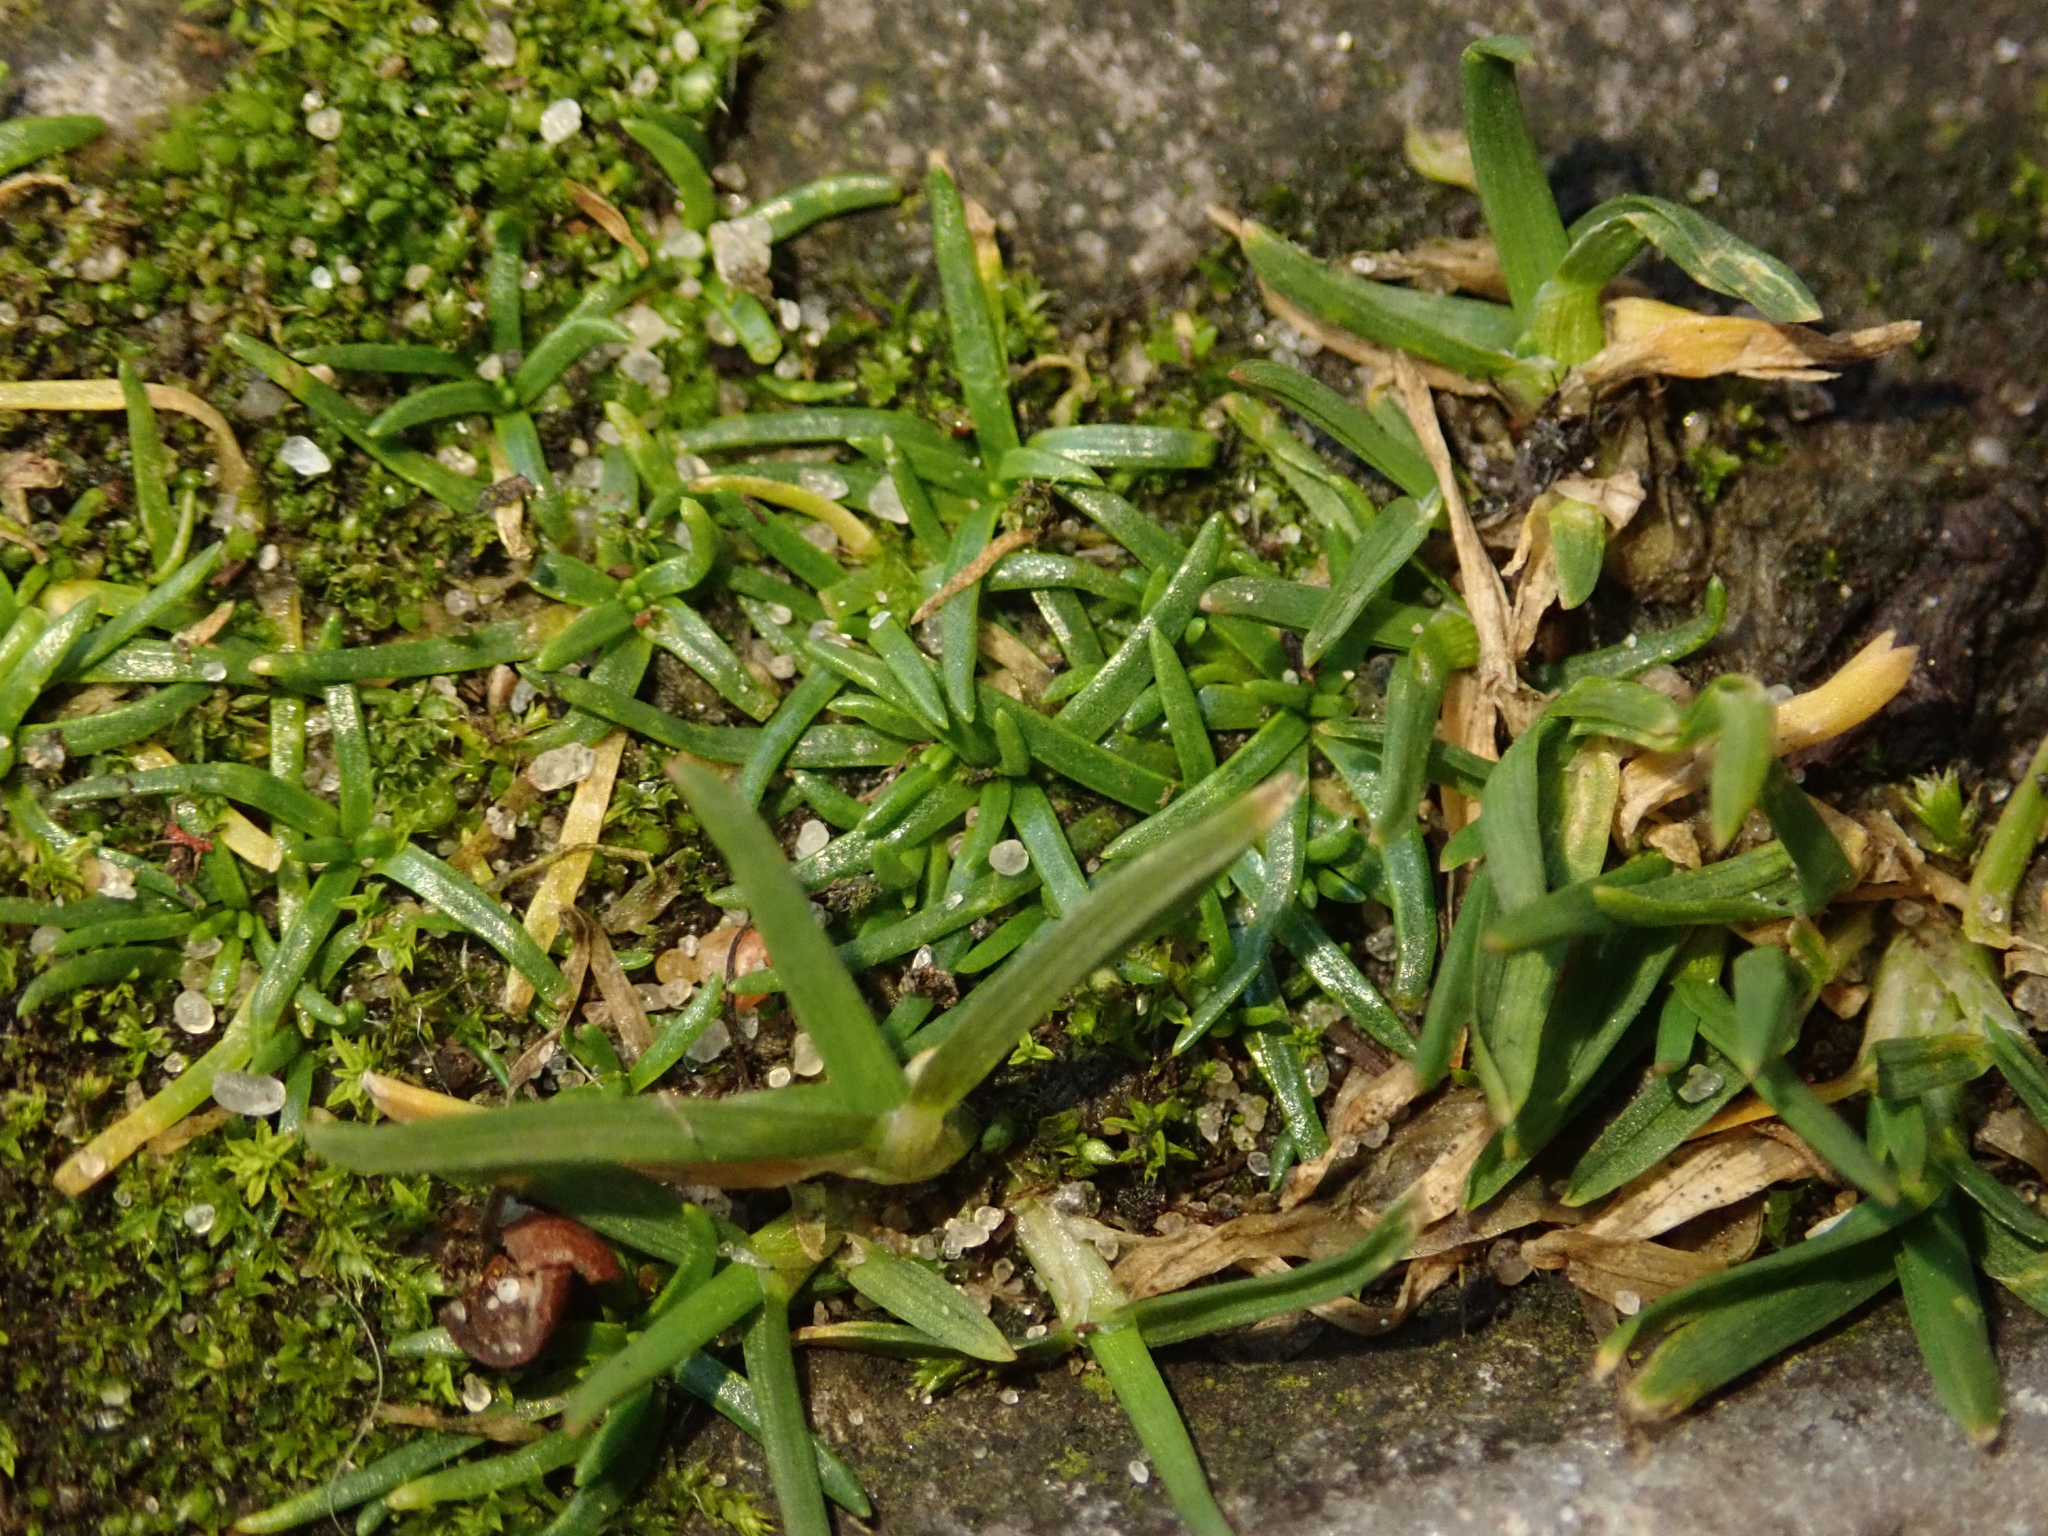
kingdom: Plantae
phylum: Tracheophyta
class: Magnoliopsida
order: Caryophyllales
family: Caryophyllaceae
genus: Sagina
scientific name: Sagina procumbens
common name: Procumbent pearlwort
